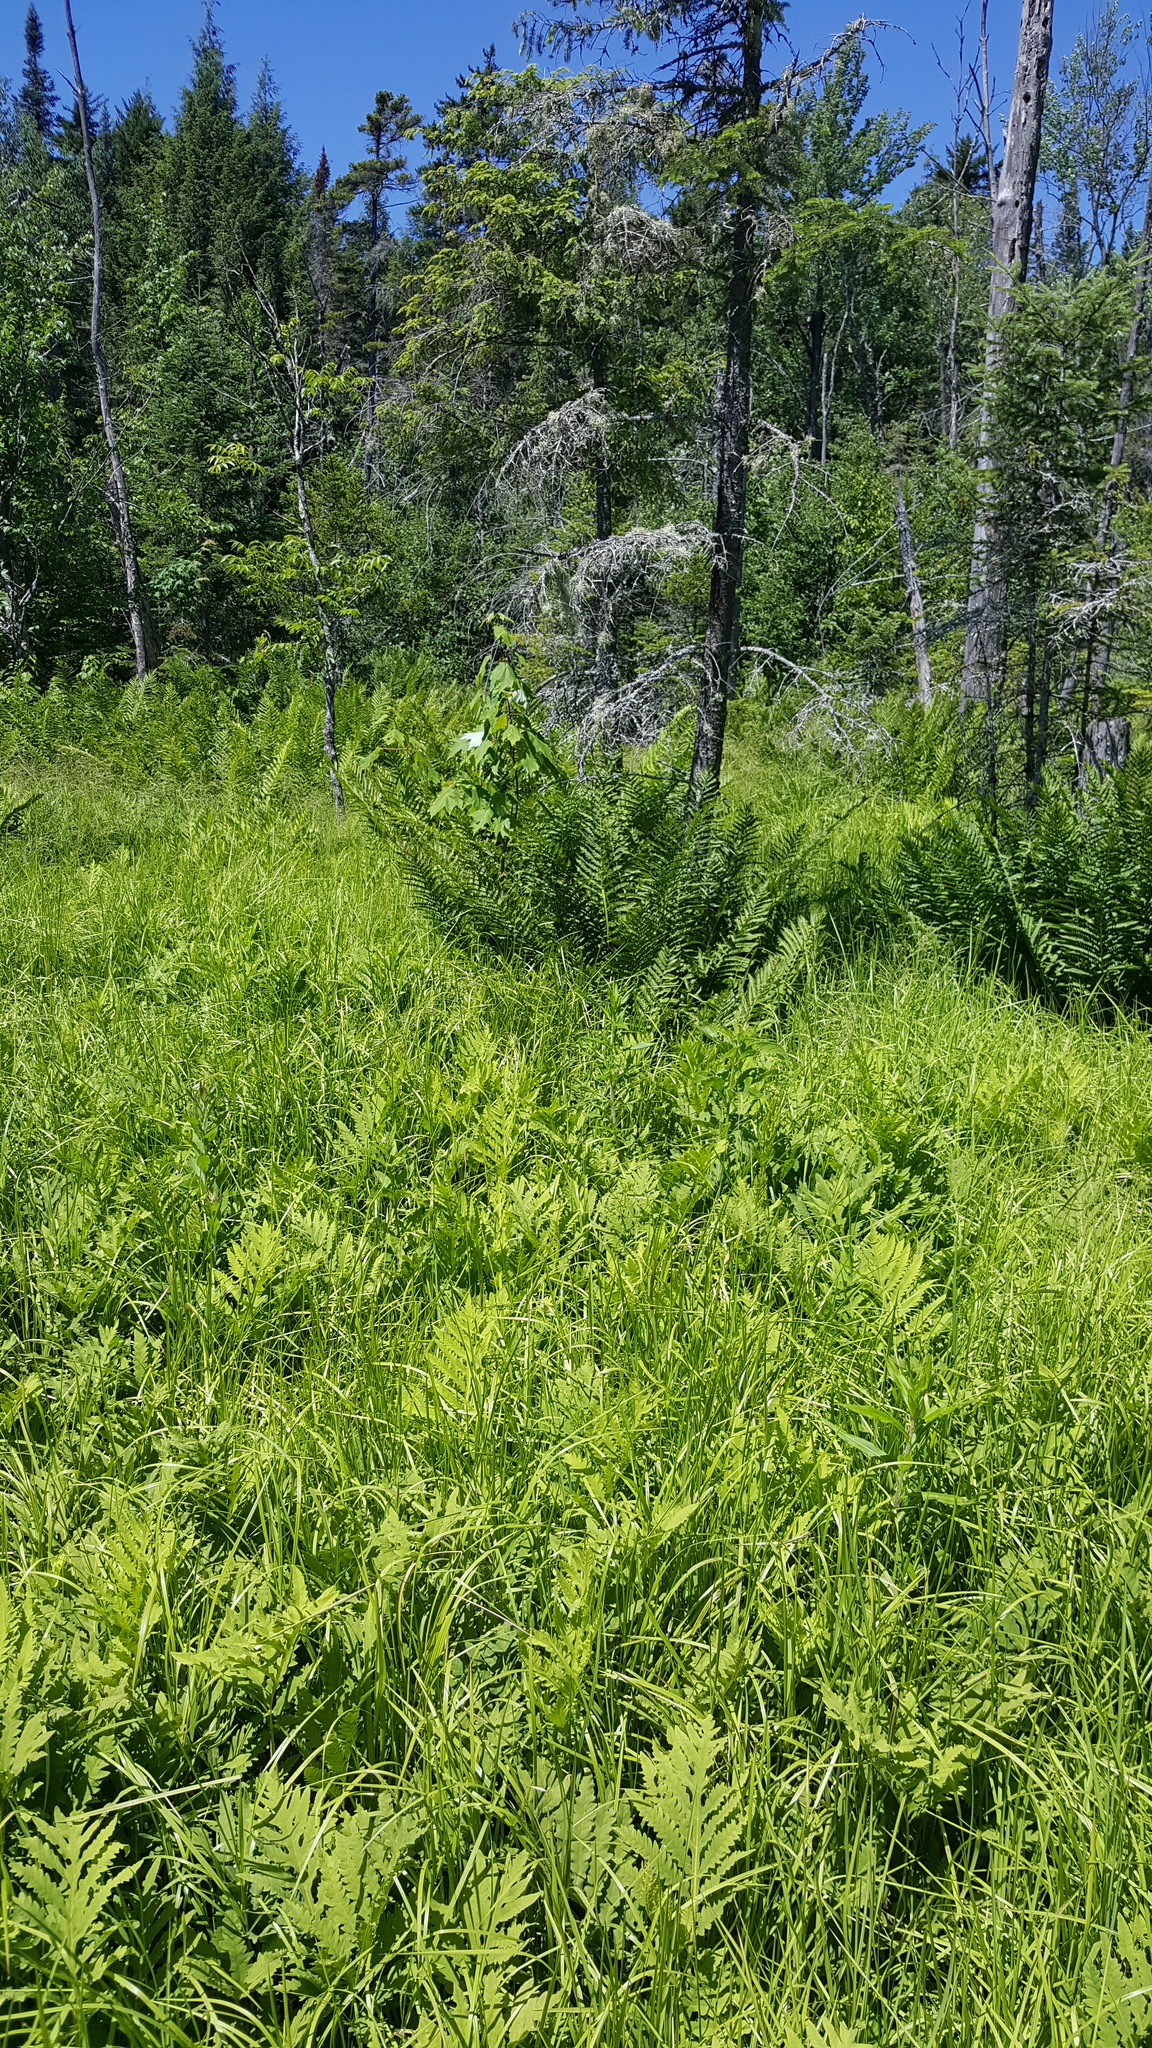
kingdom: Plantae
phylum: Tracheophyta
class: Polypodiopsida
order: Polypodiales
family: Onocleaceae
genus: Onoclea
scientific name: Onoclea sensibilis
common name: Sensitive fern
